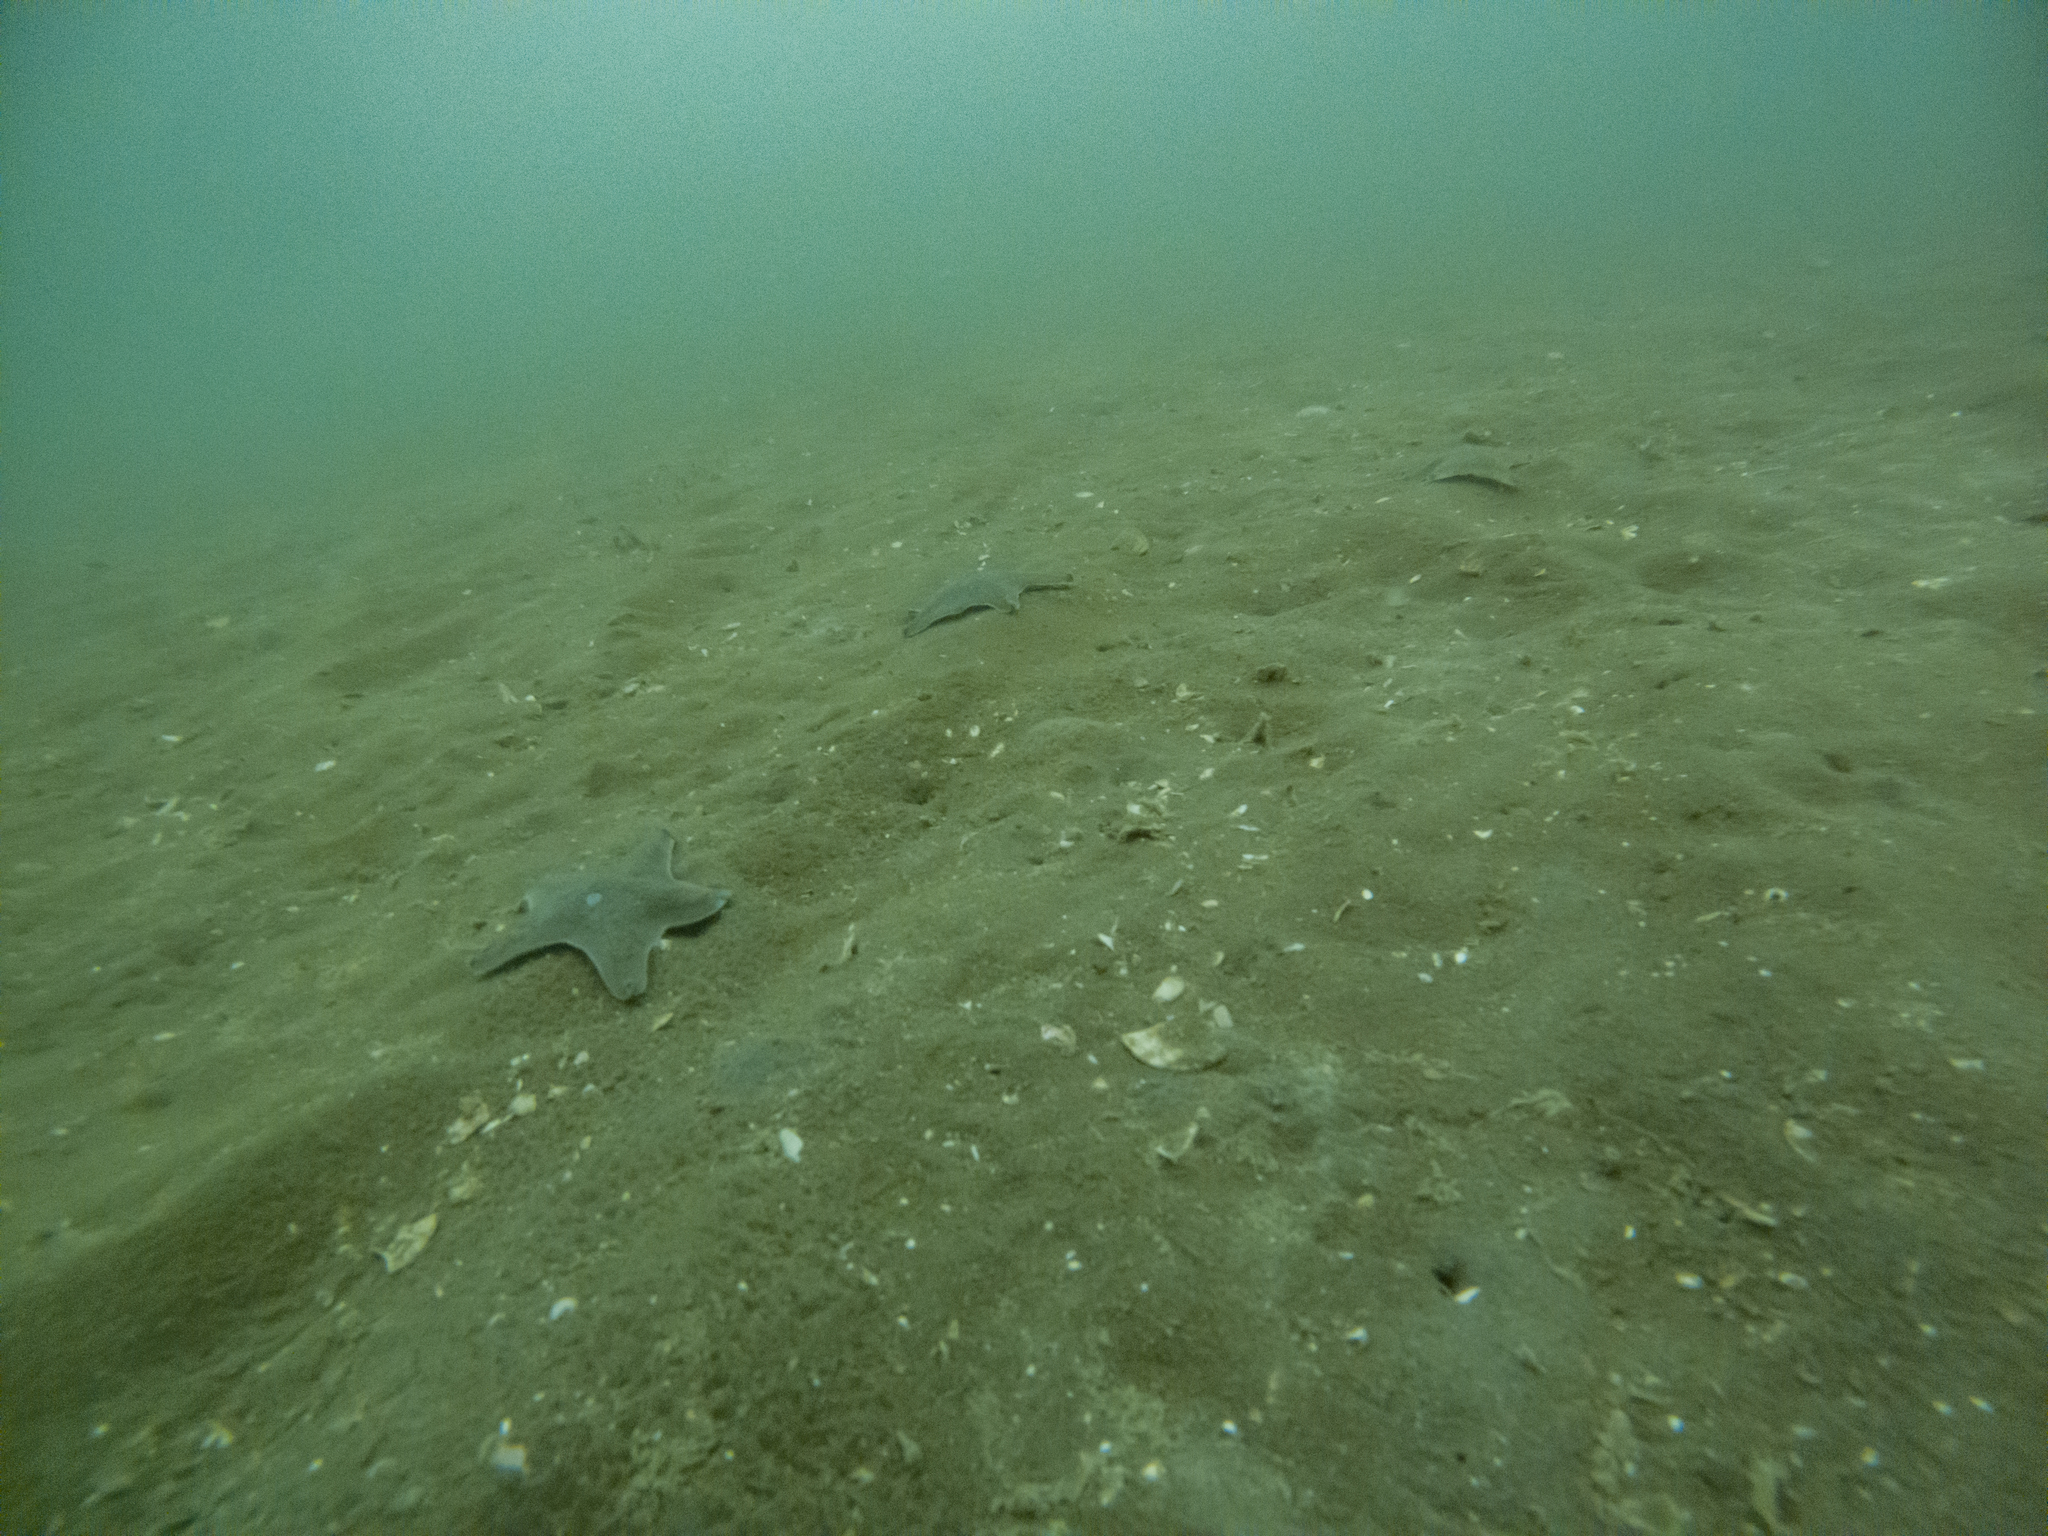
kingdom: Animalia
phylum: Echinodermata
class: Asteroidea
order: Valvatida
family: Asterinidae
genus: Patiriella
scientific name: Patiriella regularis
